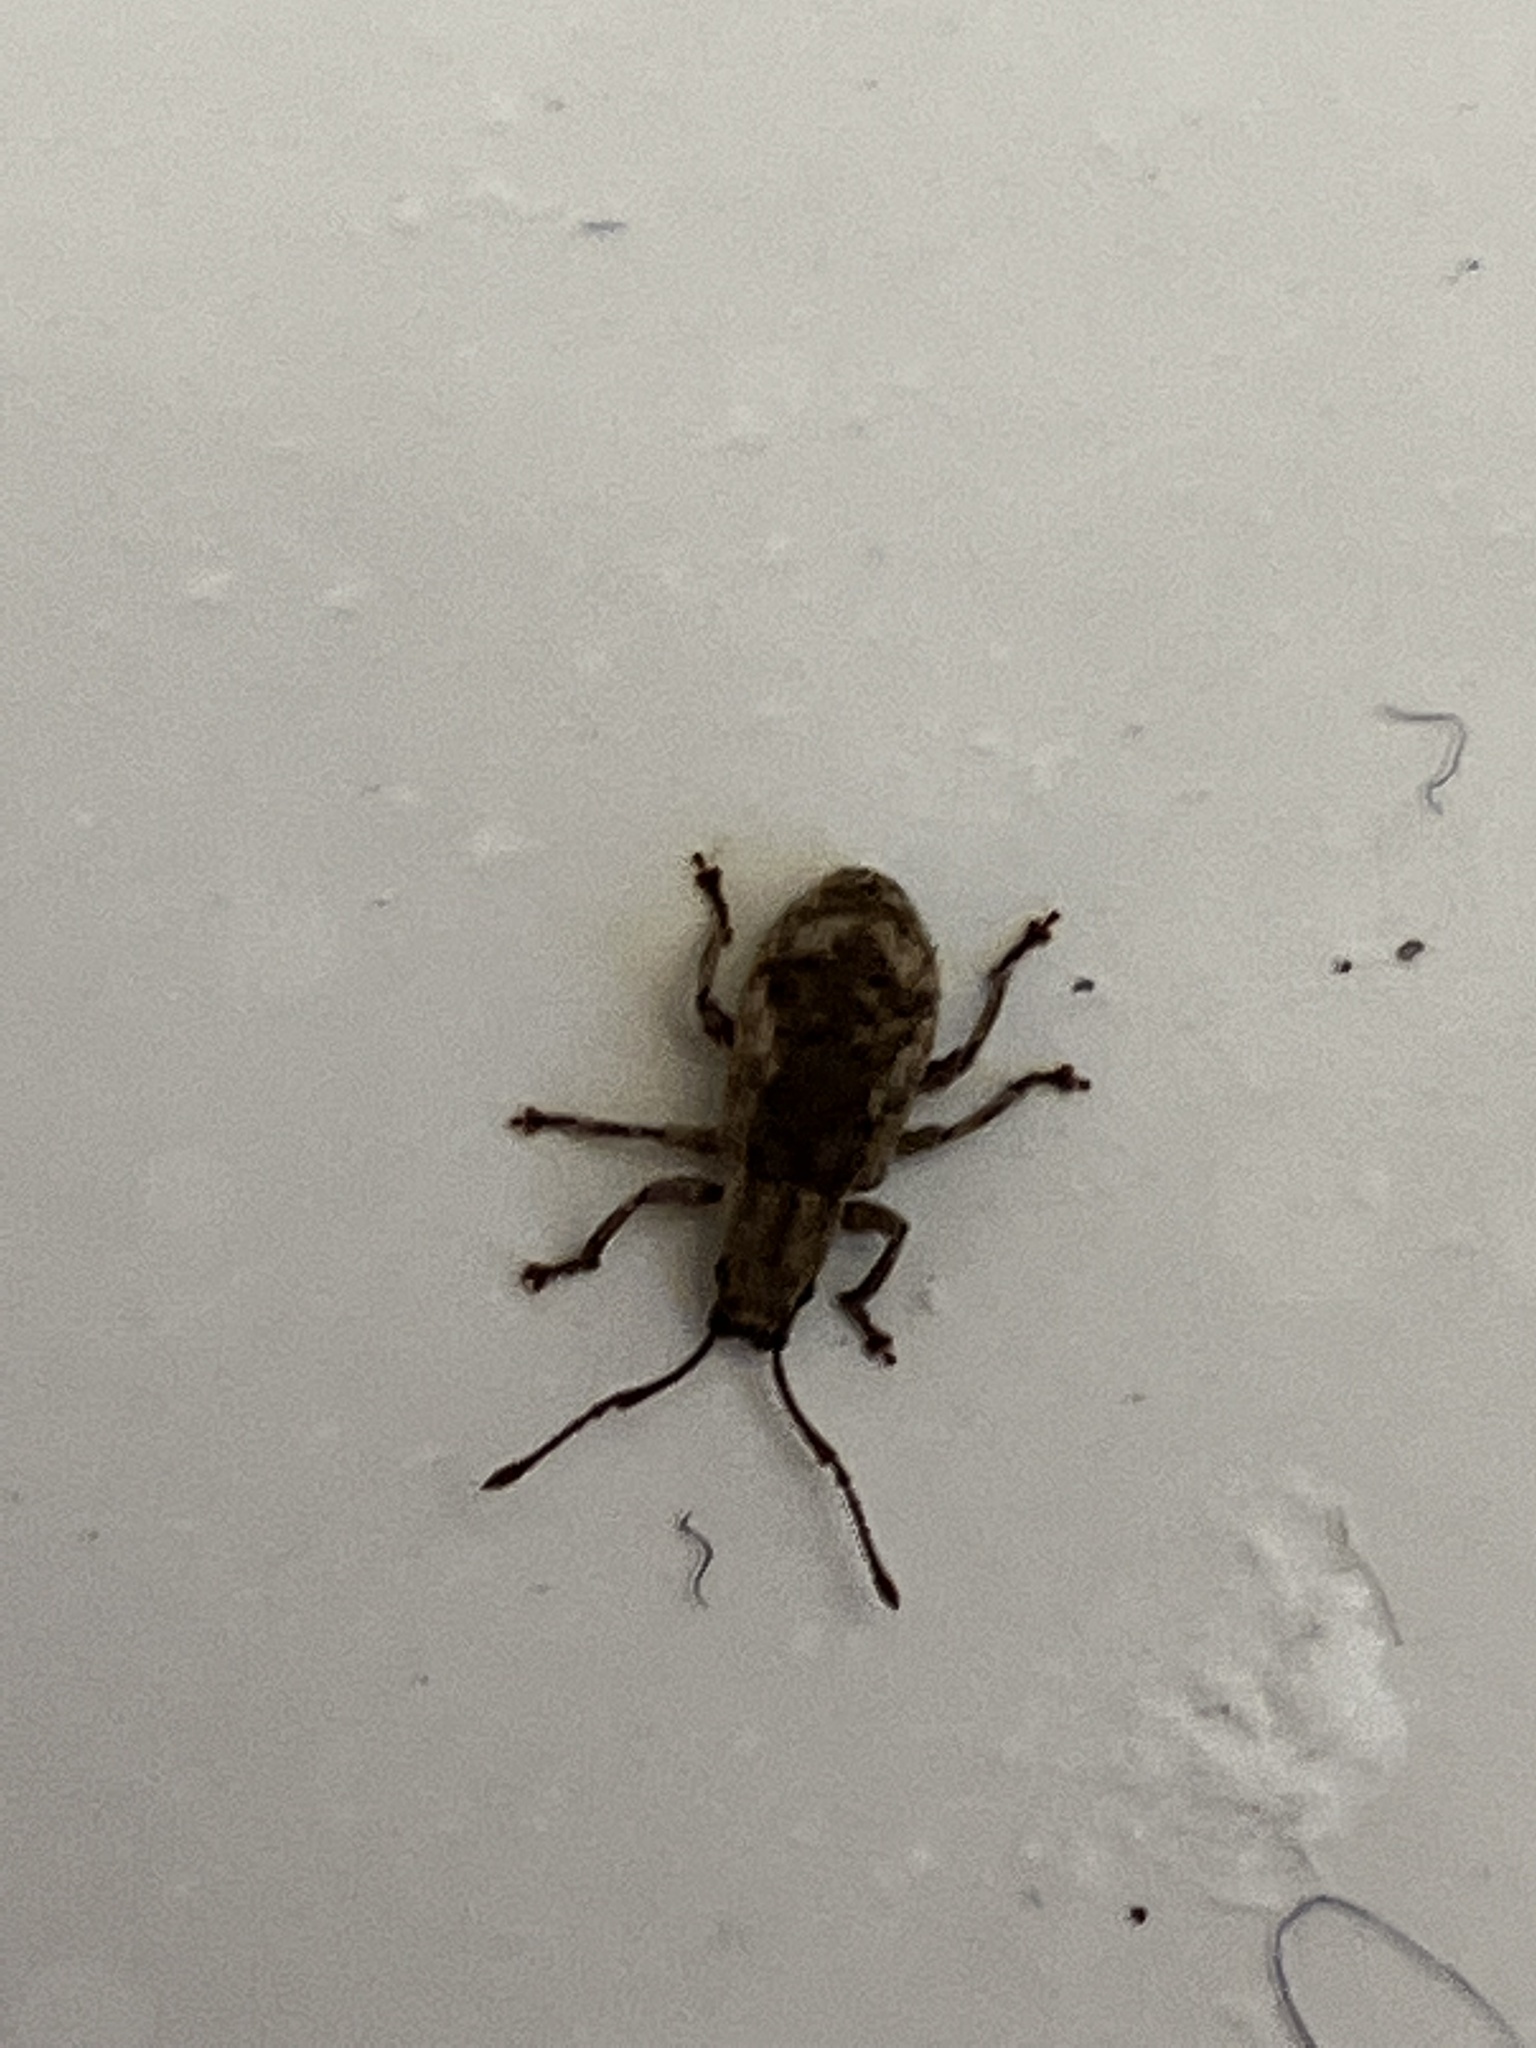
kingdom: Animalia
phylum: Arthropoda
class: Insecta
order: Coleoptera
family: Curculionidae
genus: Pseudoedophrys
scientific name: Pseudoedophrys hilleri
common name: Weevil
